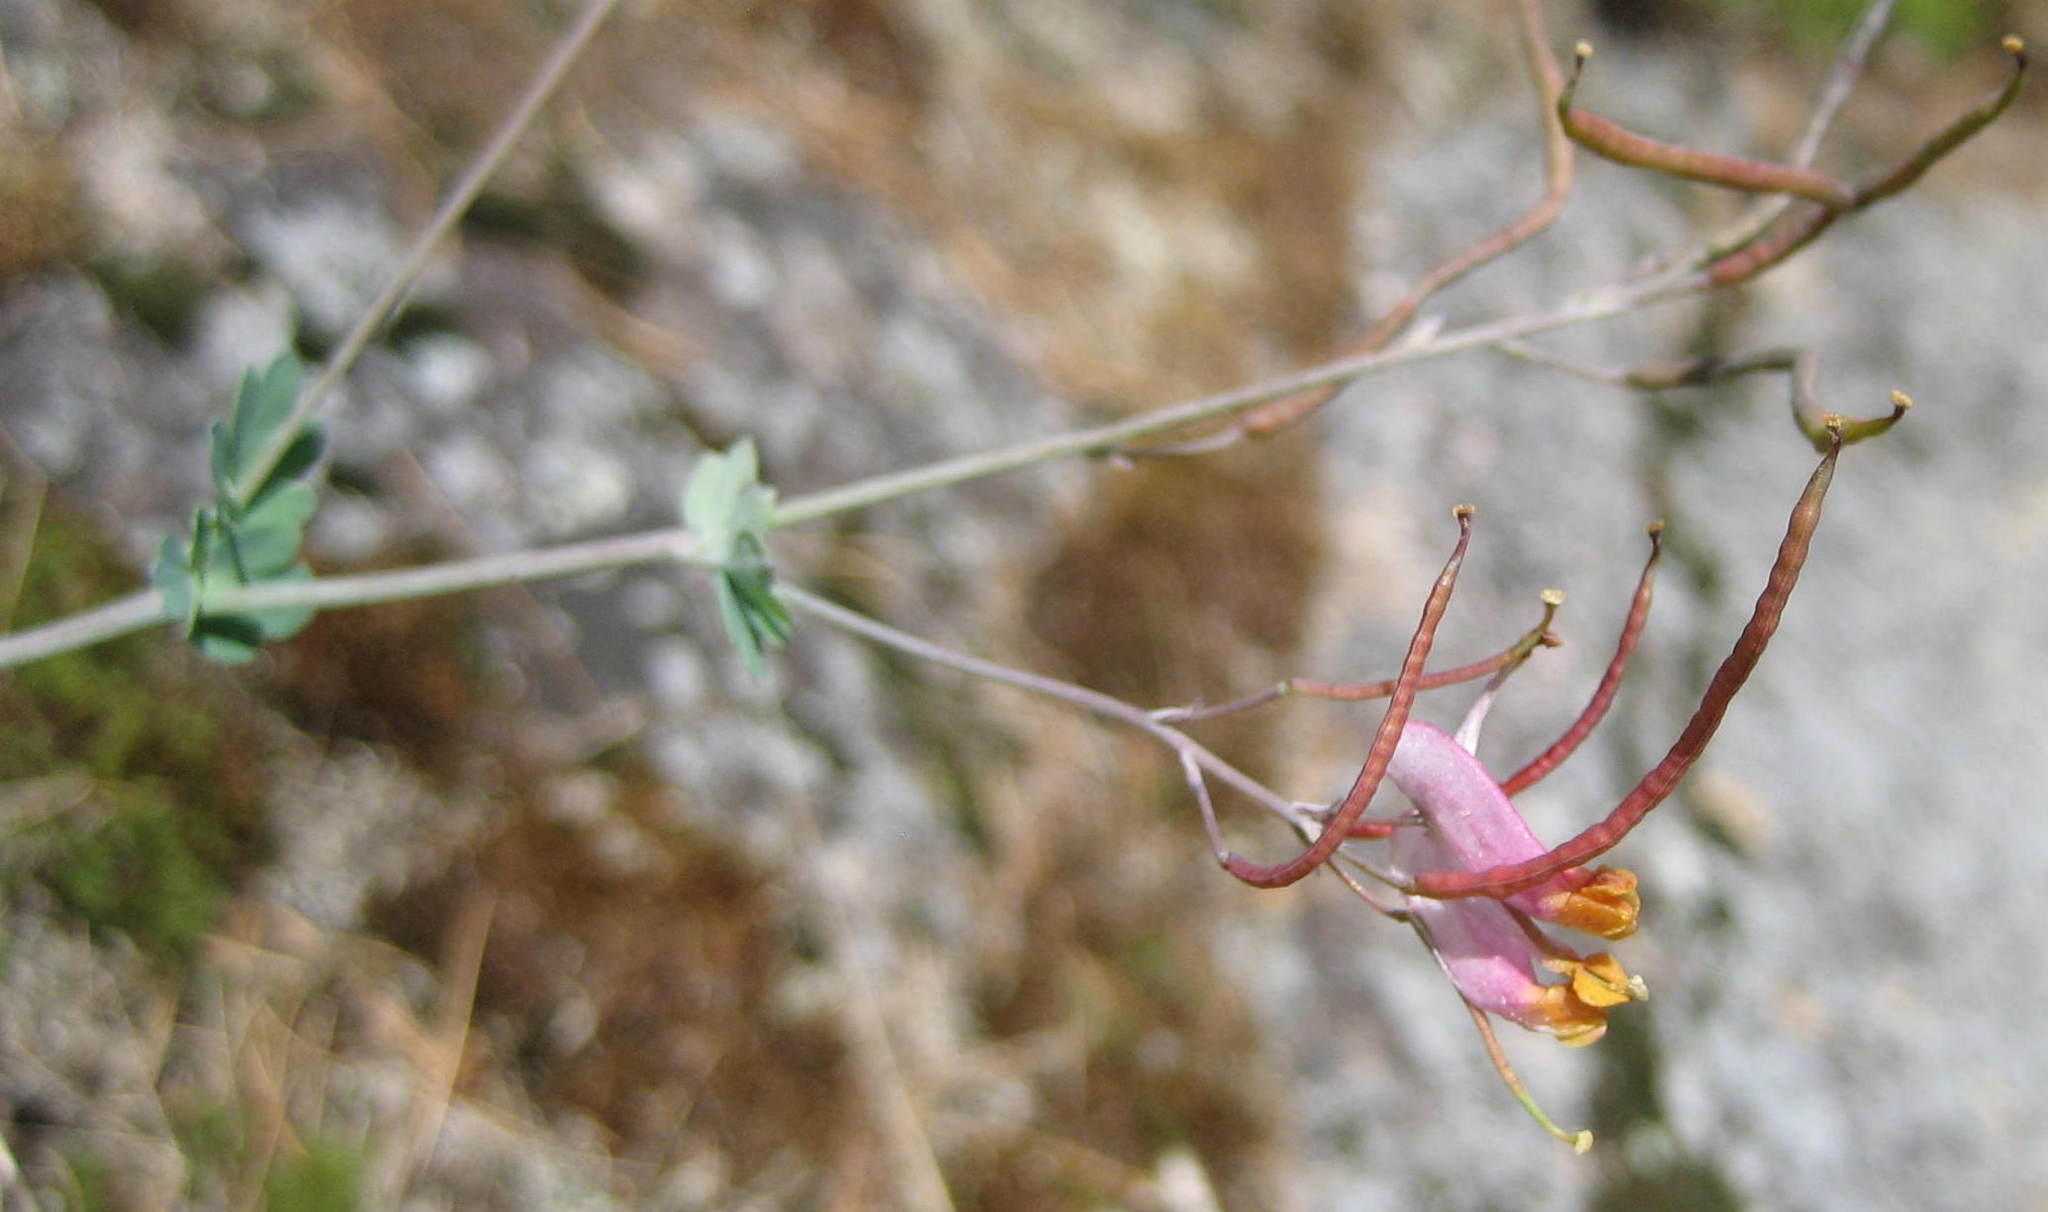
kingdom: Plantae
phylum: Tracheophyta
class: Magnoliopsida
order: Ranunculales
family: Papaveraceae
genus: Capnoides
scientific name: Capnoides sempervirens
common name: Rock harlequin
